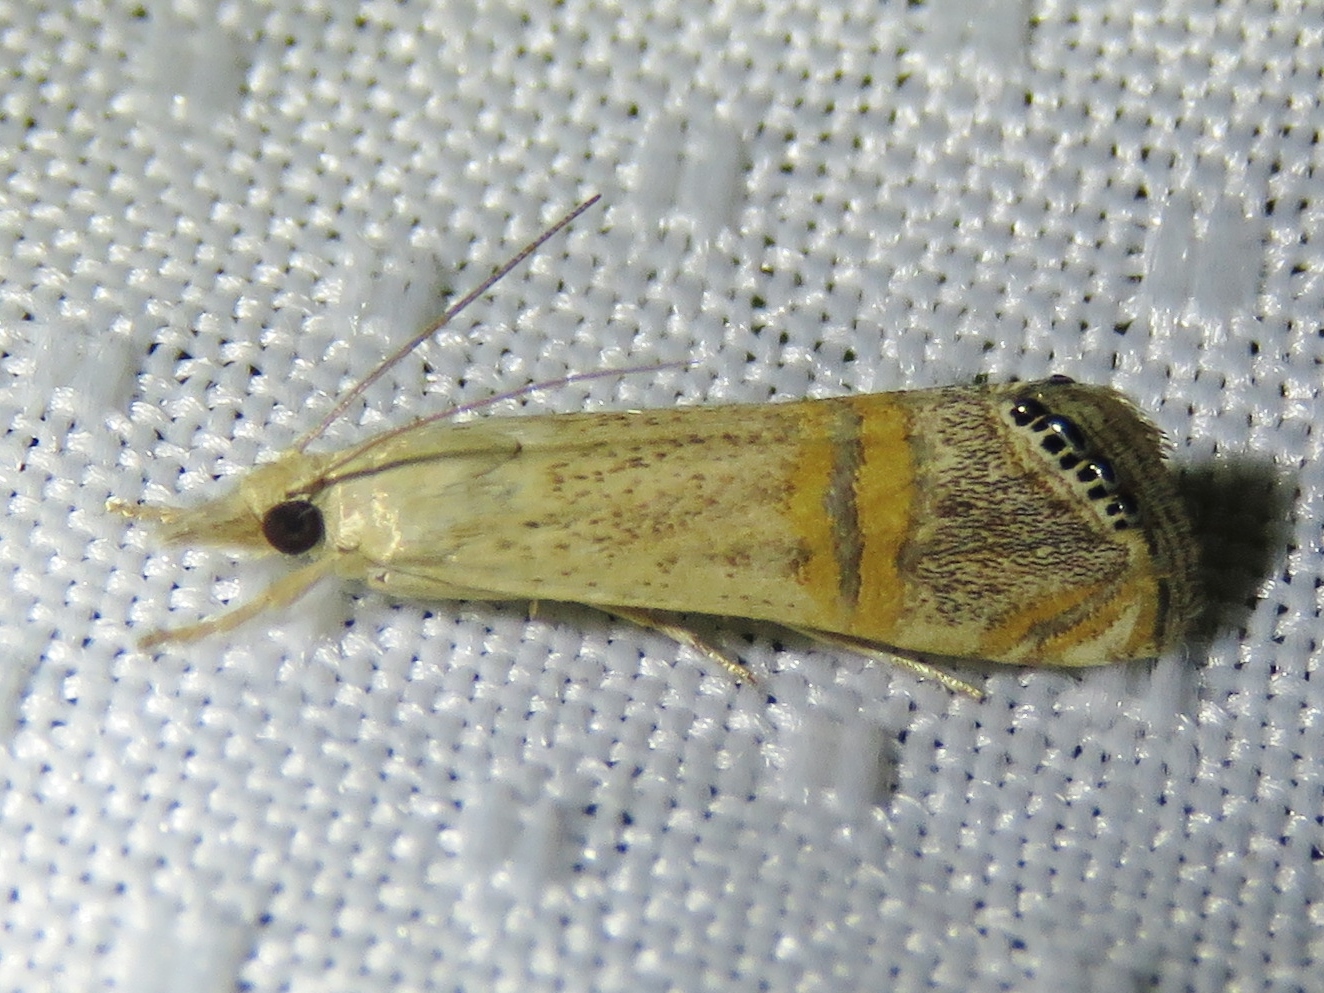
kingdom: Animalia
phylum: Arthropoda
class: Insecta
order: Lepidoptera
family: Crambidae
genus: Euchromius
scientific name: Euchromius ocellea
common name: Necklace veneer moth
